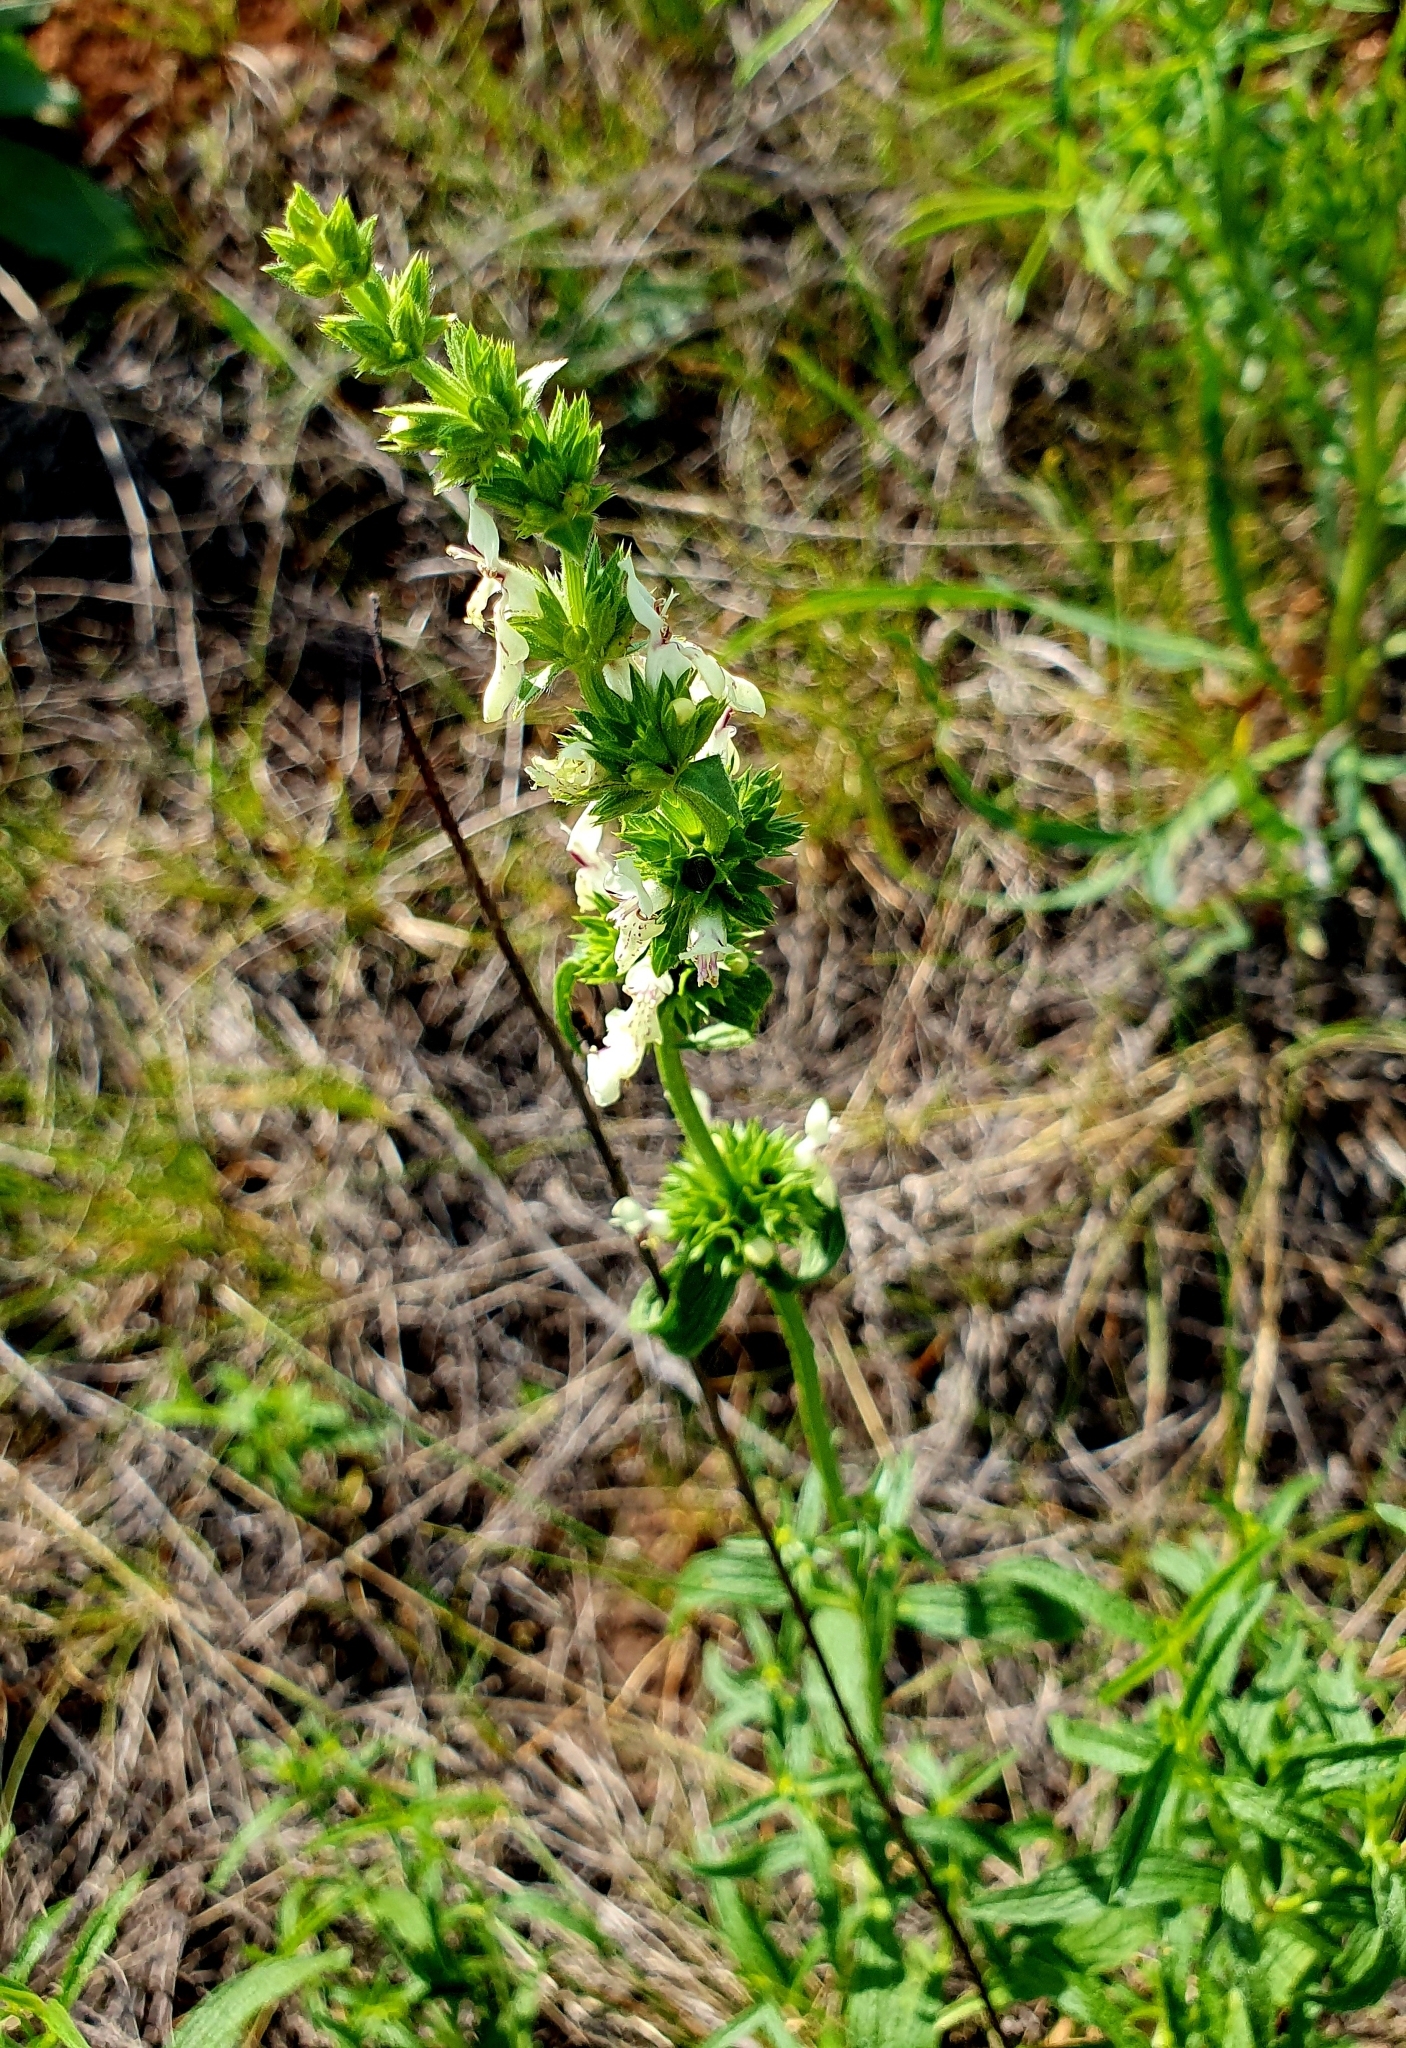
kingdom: Plantae
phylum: Tracheophyta
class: Magnoliopsida
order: Lamiales
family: Lamiaceae
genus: Stachys
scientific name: Stachys recta
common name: Perennial yellow-woundwort
